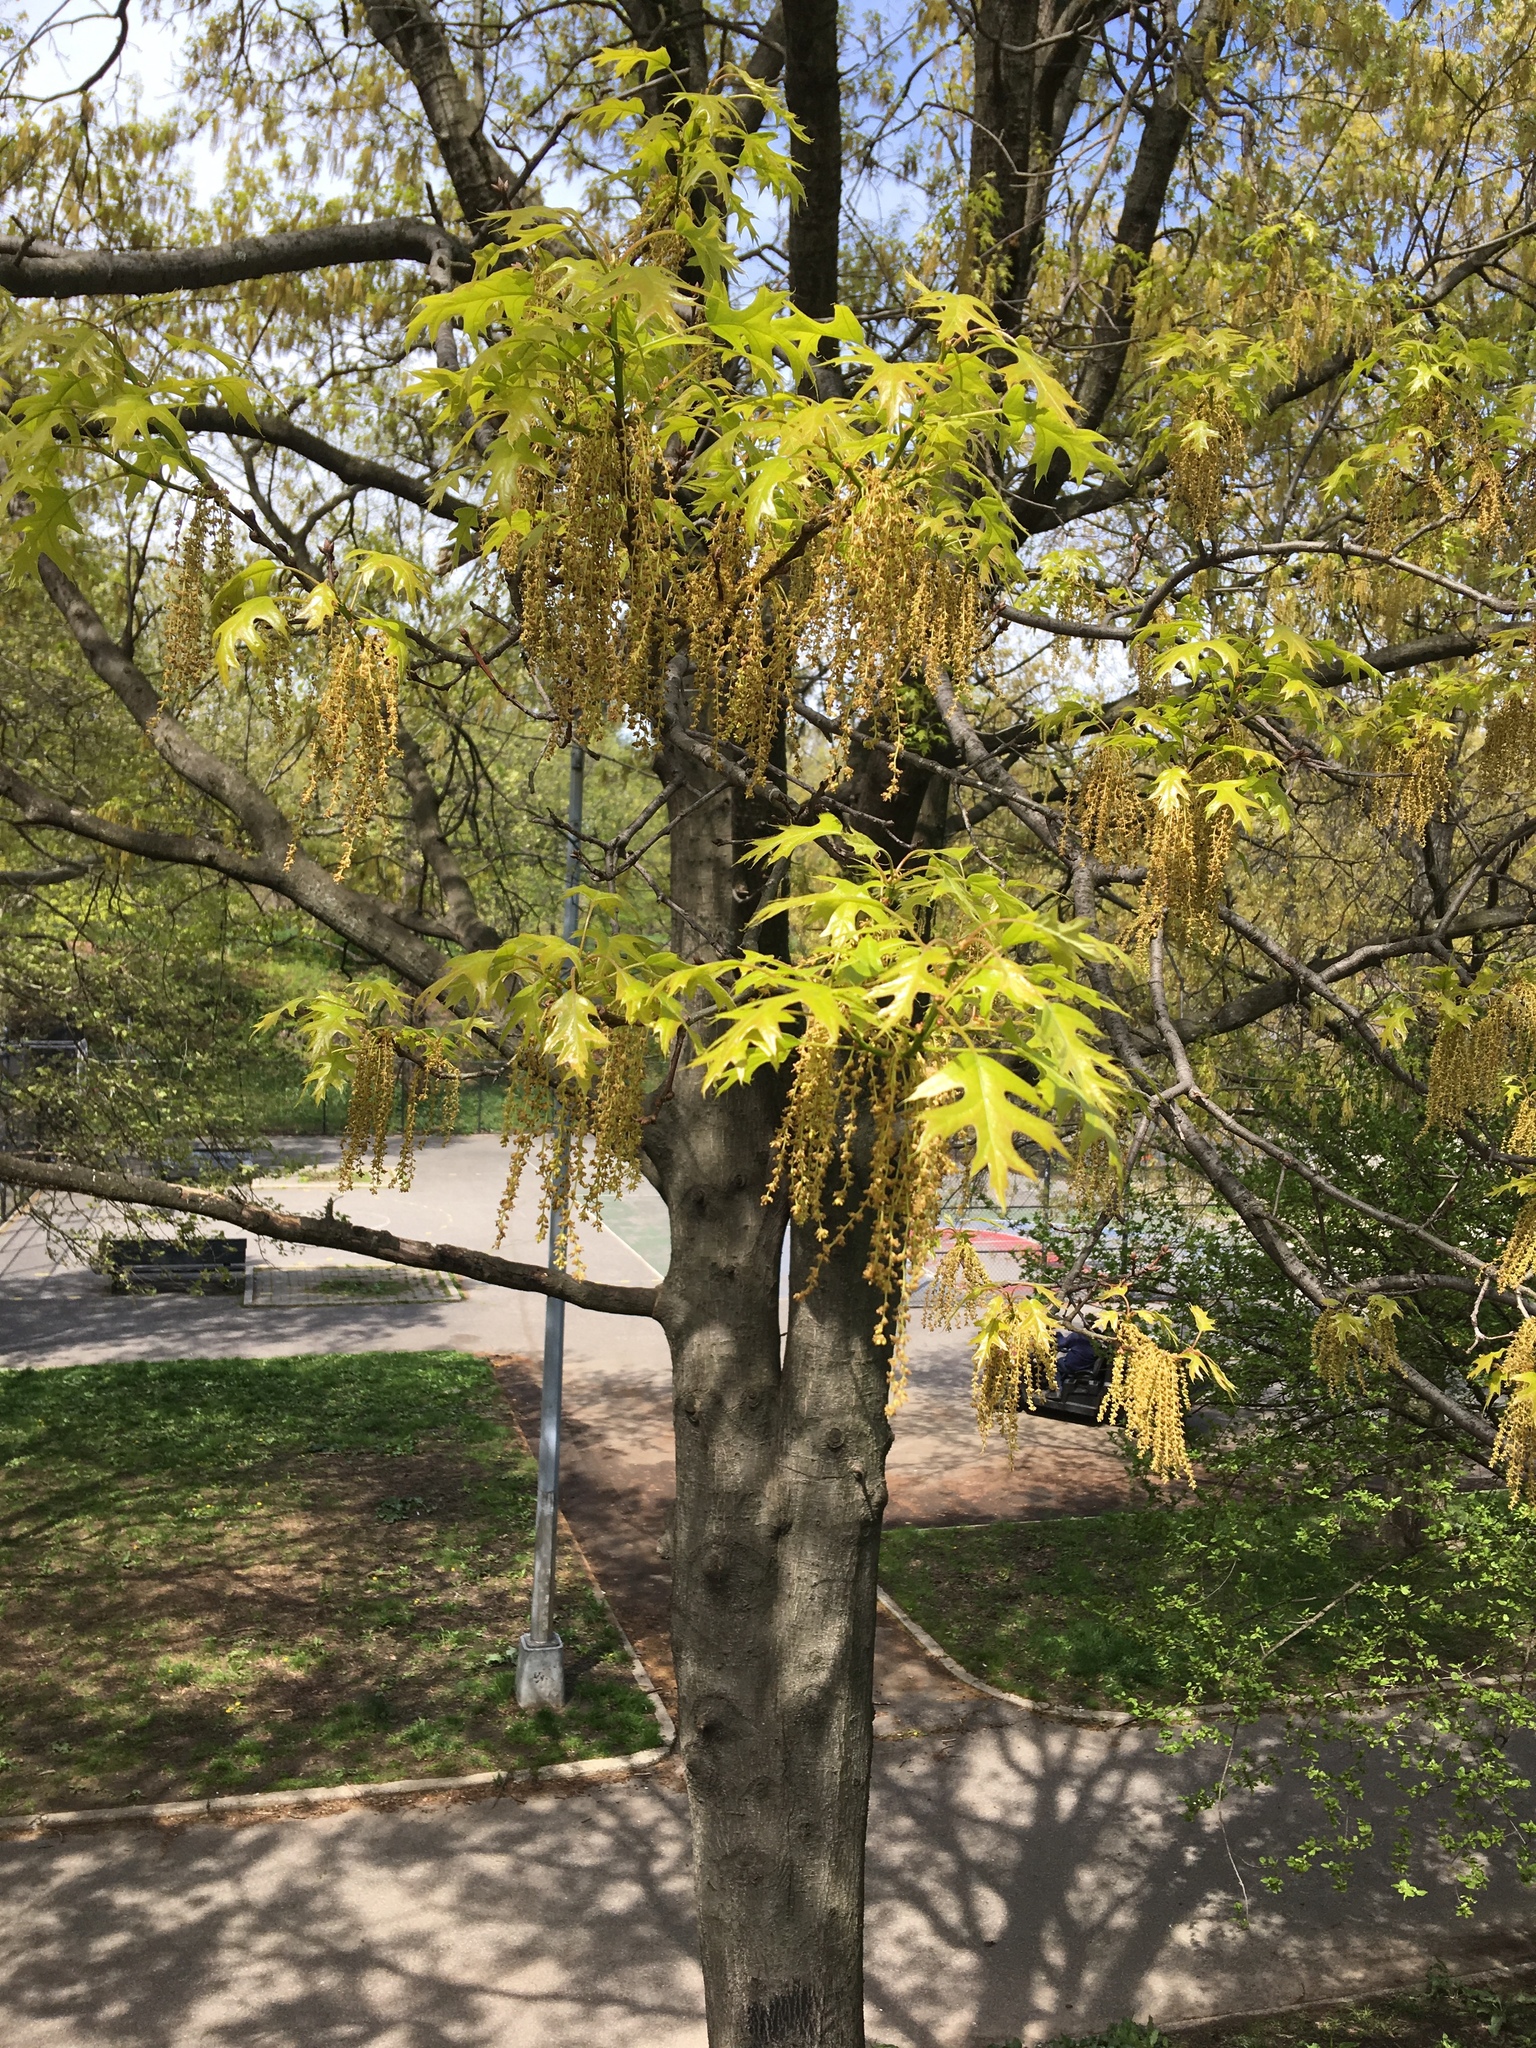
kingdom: Plantae
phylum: Tracheophyta
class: Magnoliopsida
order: Fagales
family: Fagaceae
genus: Quercus
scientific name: Quercus palustris
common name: Pin oak
